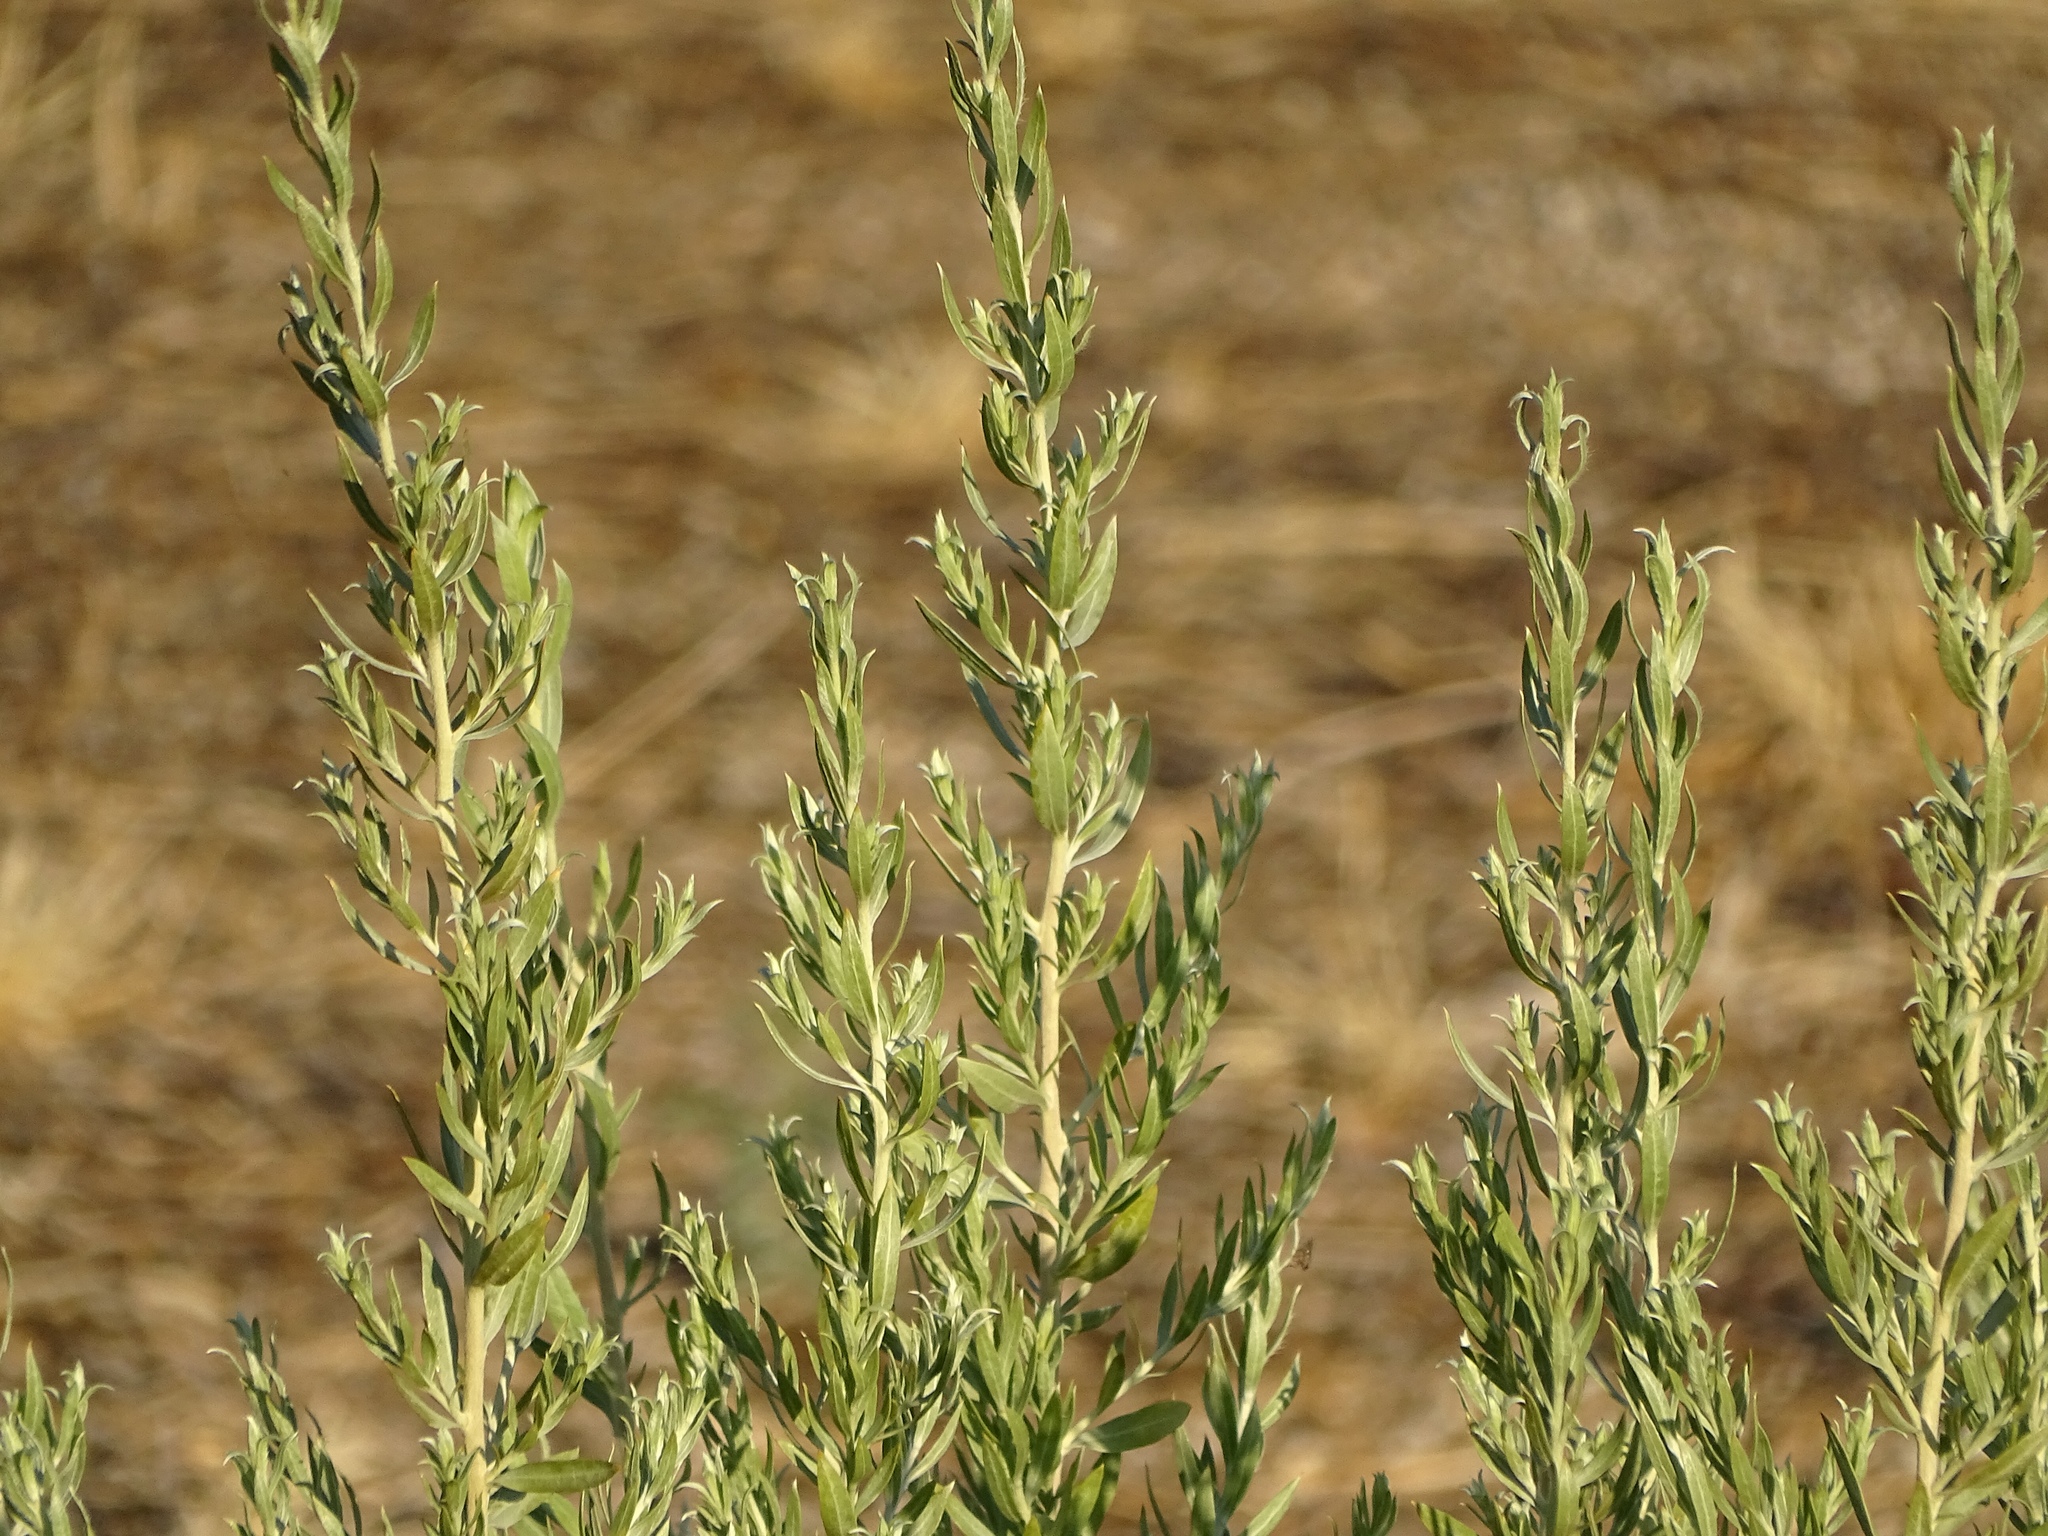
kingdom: Plantae
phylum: Tracheophyta
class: Magnoliopsida
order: Asterales
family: Asteraceae
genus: Pluchea
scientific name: Pluchea sericea
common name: Arrow-weed
